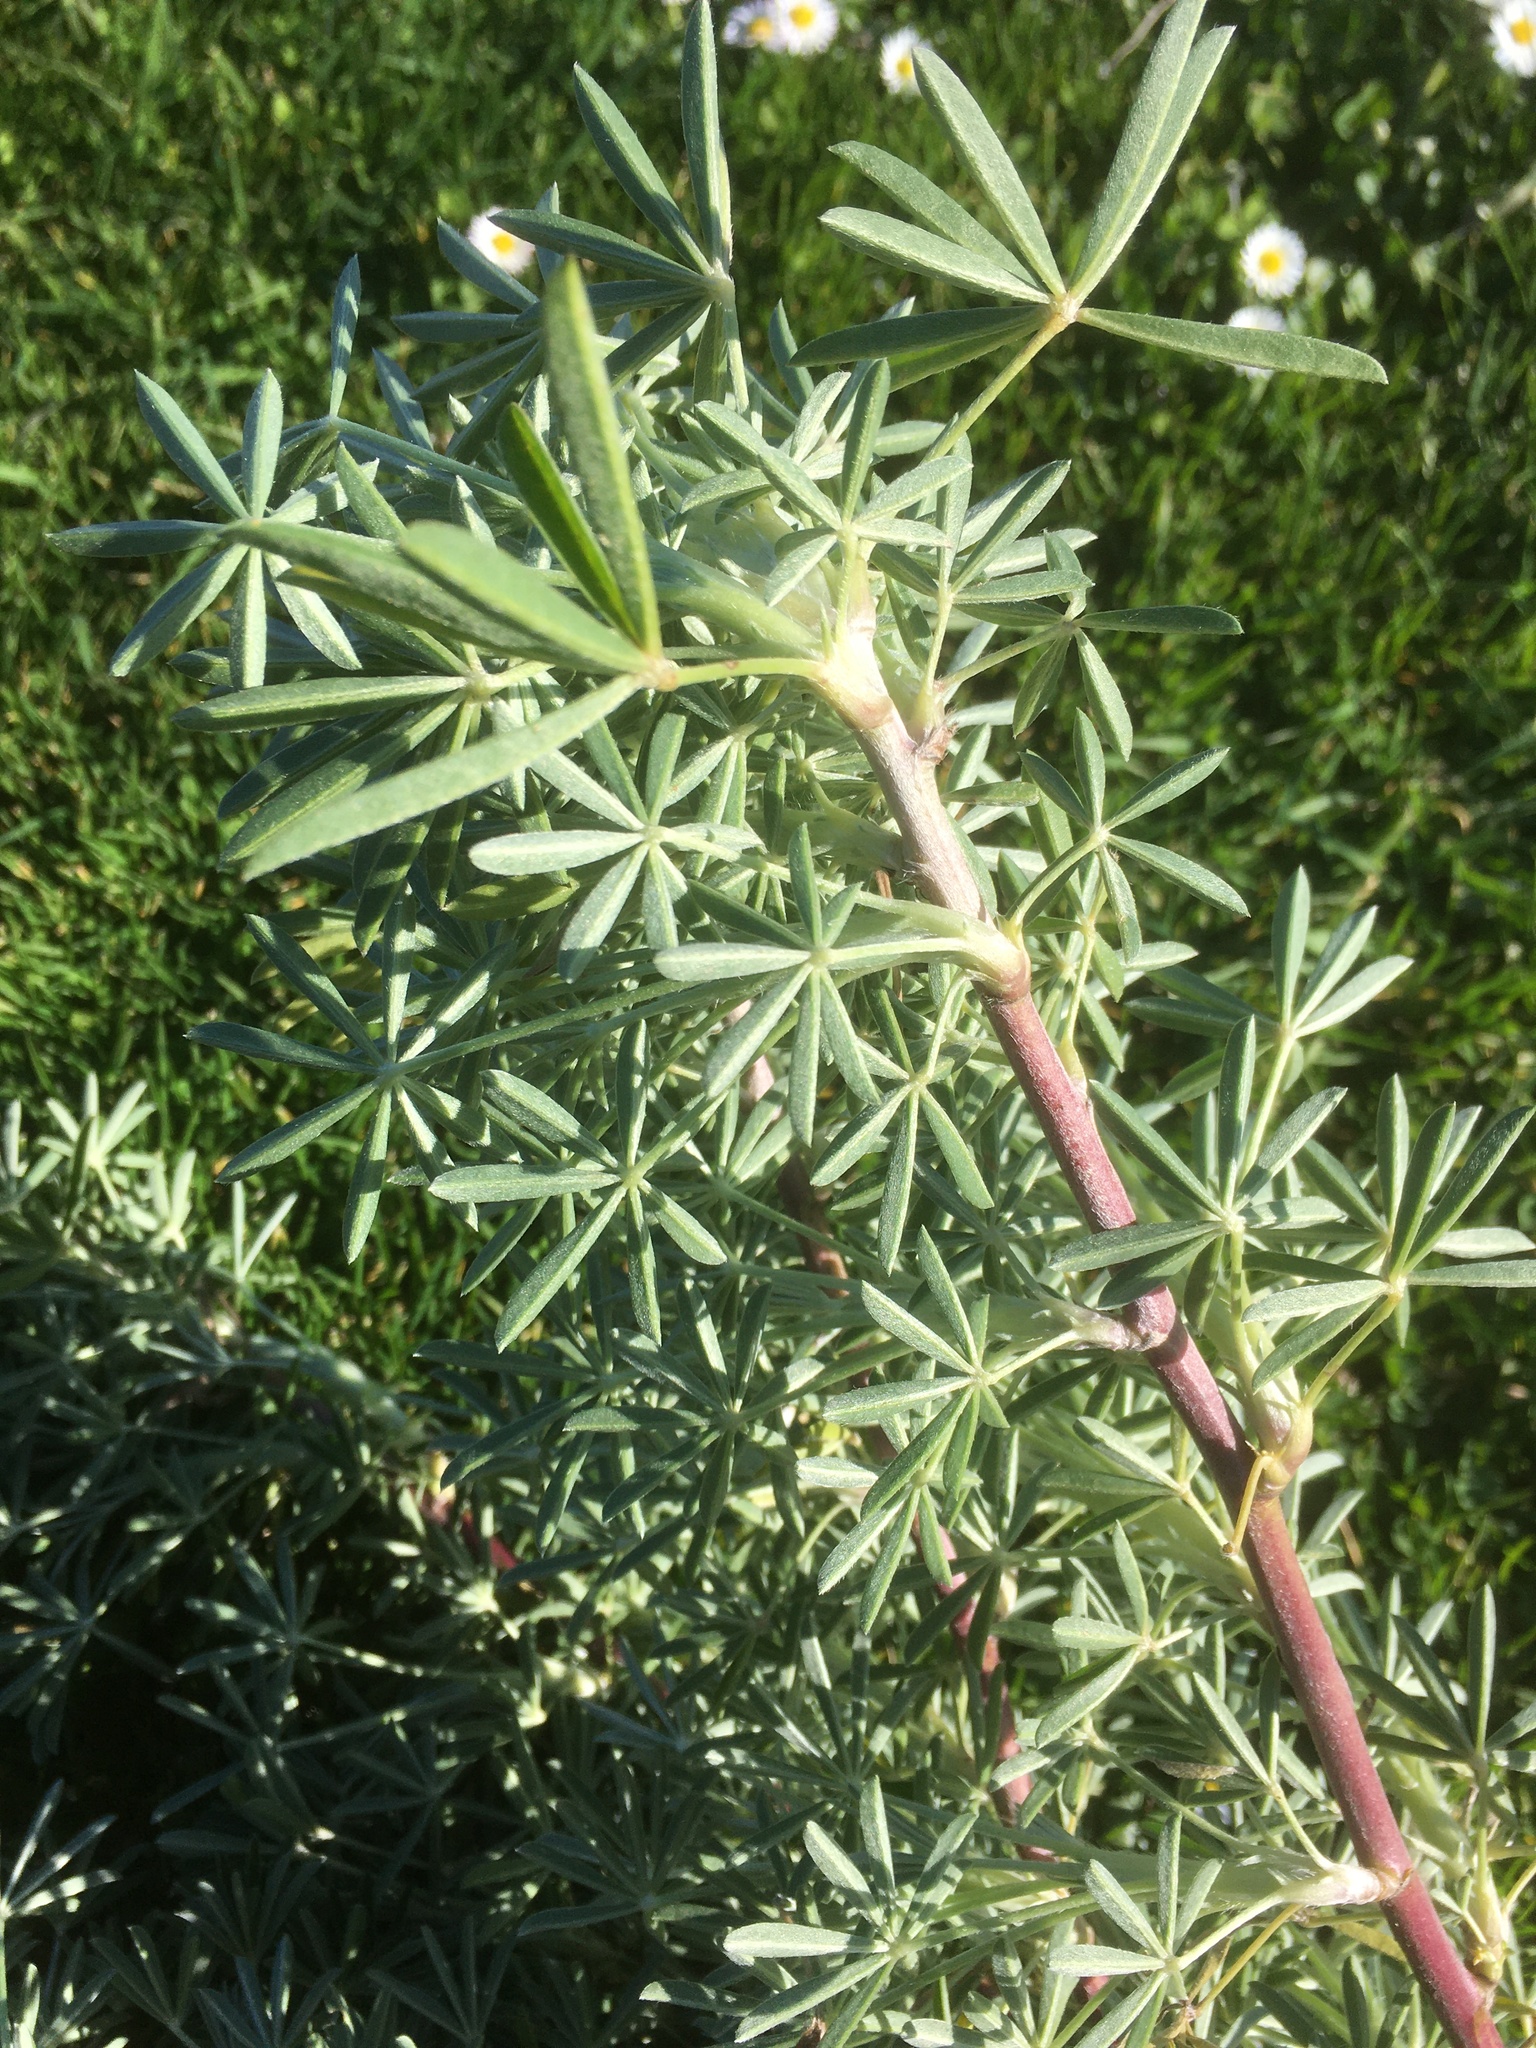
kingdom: Plantae
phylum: Tracheophyta
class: Magnoliopsida
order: Fabales
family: Fabaceae
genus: Lupinus
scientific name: Lupinus arboreus
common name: Yellow bush lupine
